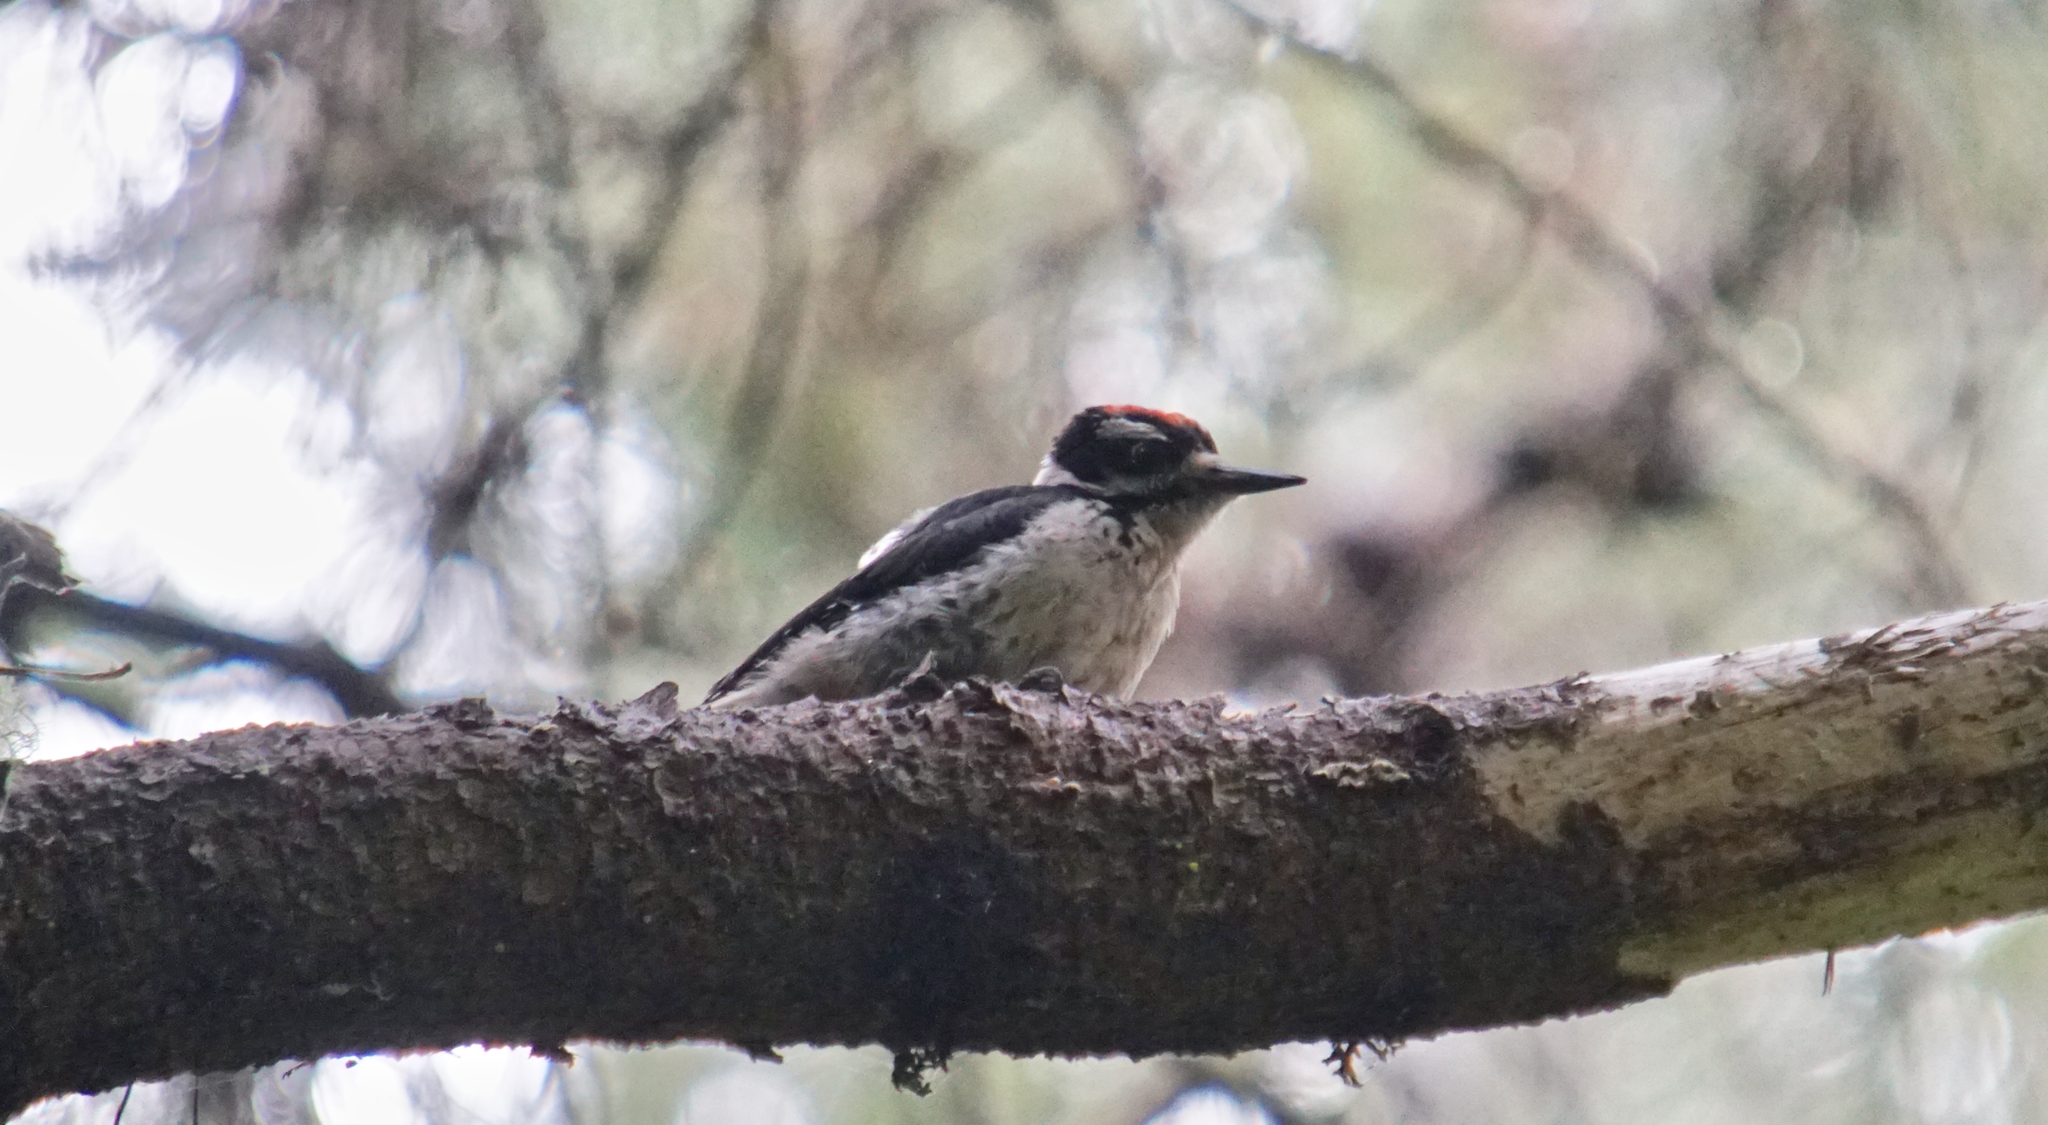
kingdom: Animalia
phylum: Chordata
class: Aves
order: Piciformes
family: Picidae
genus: Leuconotopicus
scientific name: Leuconotopicus villosus
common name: Hairy woodpecker
